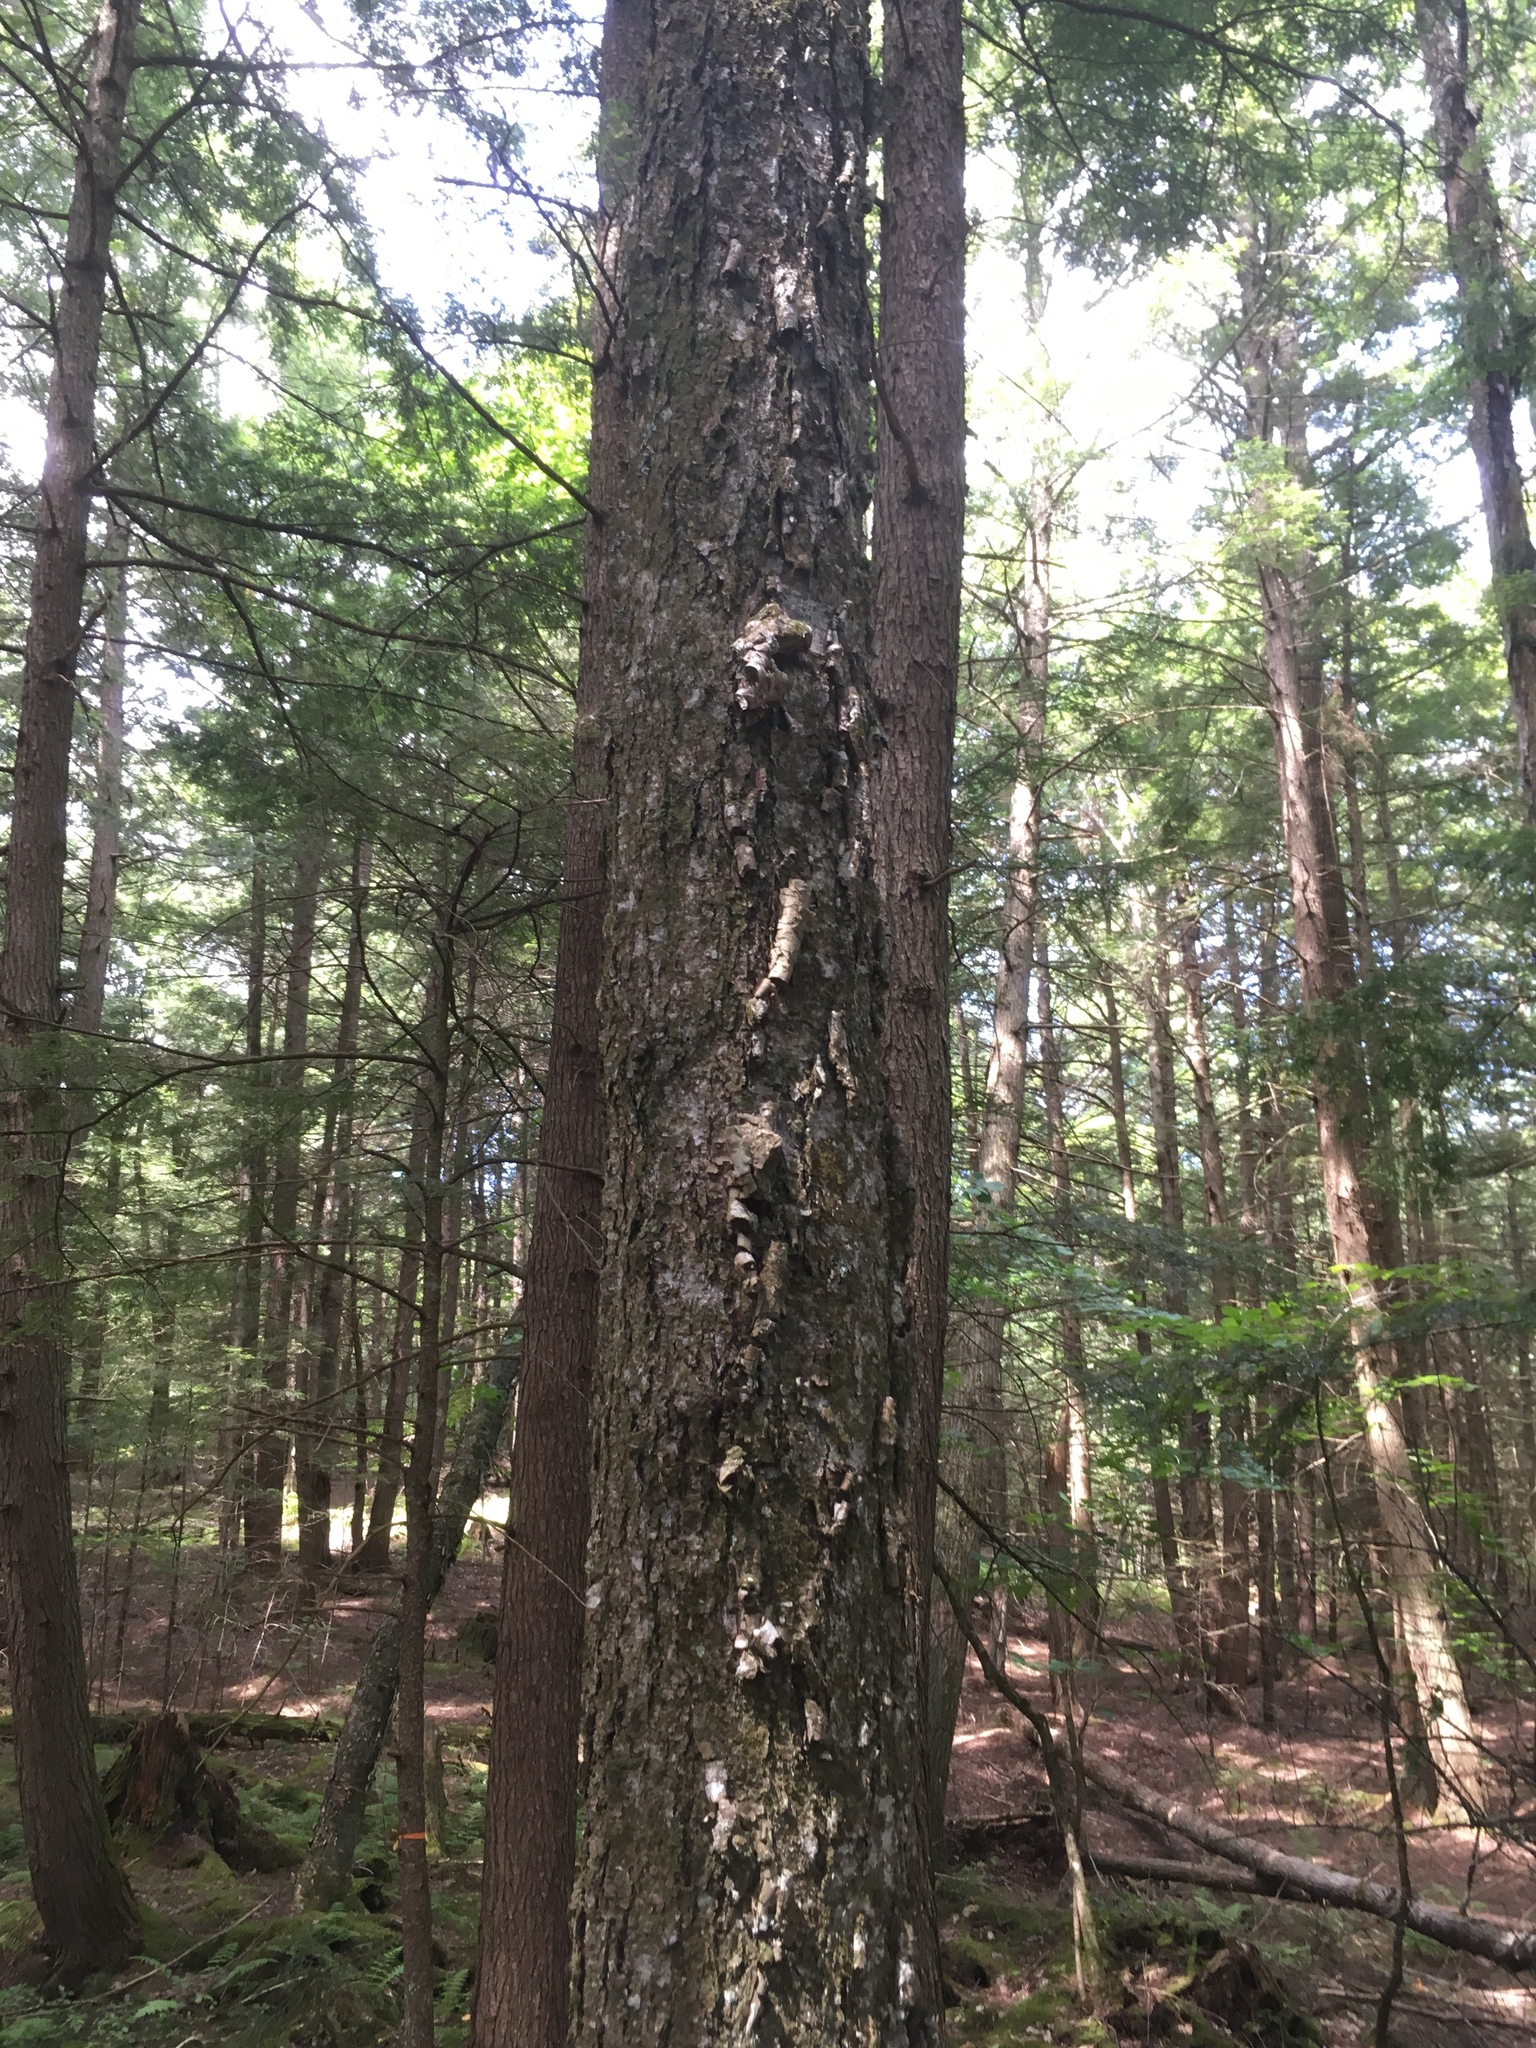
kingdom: Plantae
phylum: Tracheophyta
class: Magnoliopsida
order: Fagales
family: Betulaceae
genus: Betula
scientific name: Betula alleghaniensis
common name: Yellow birch
